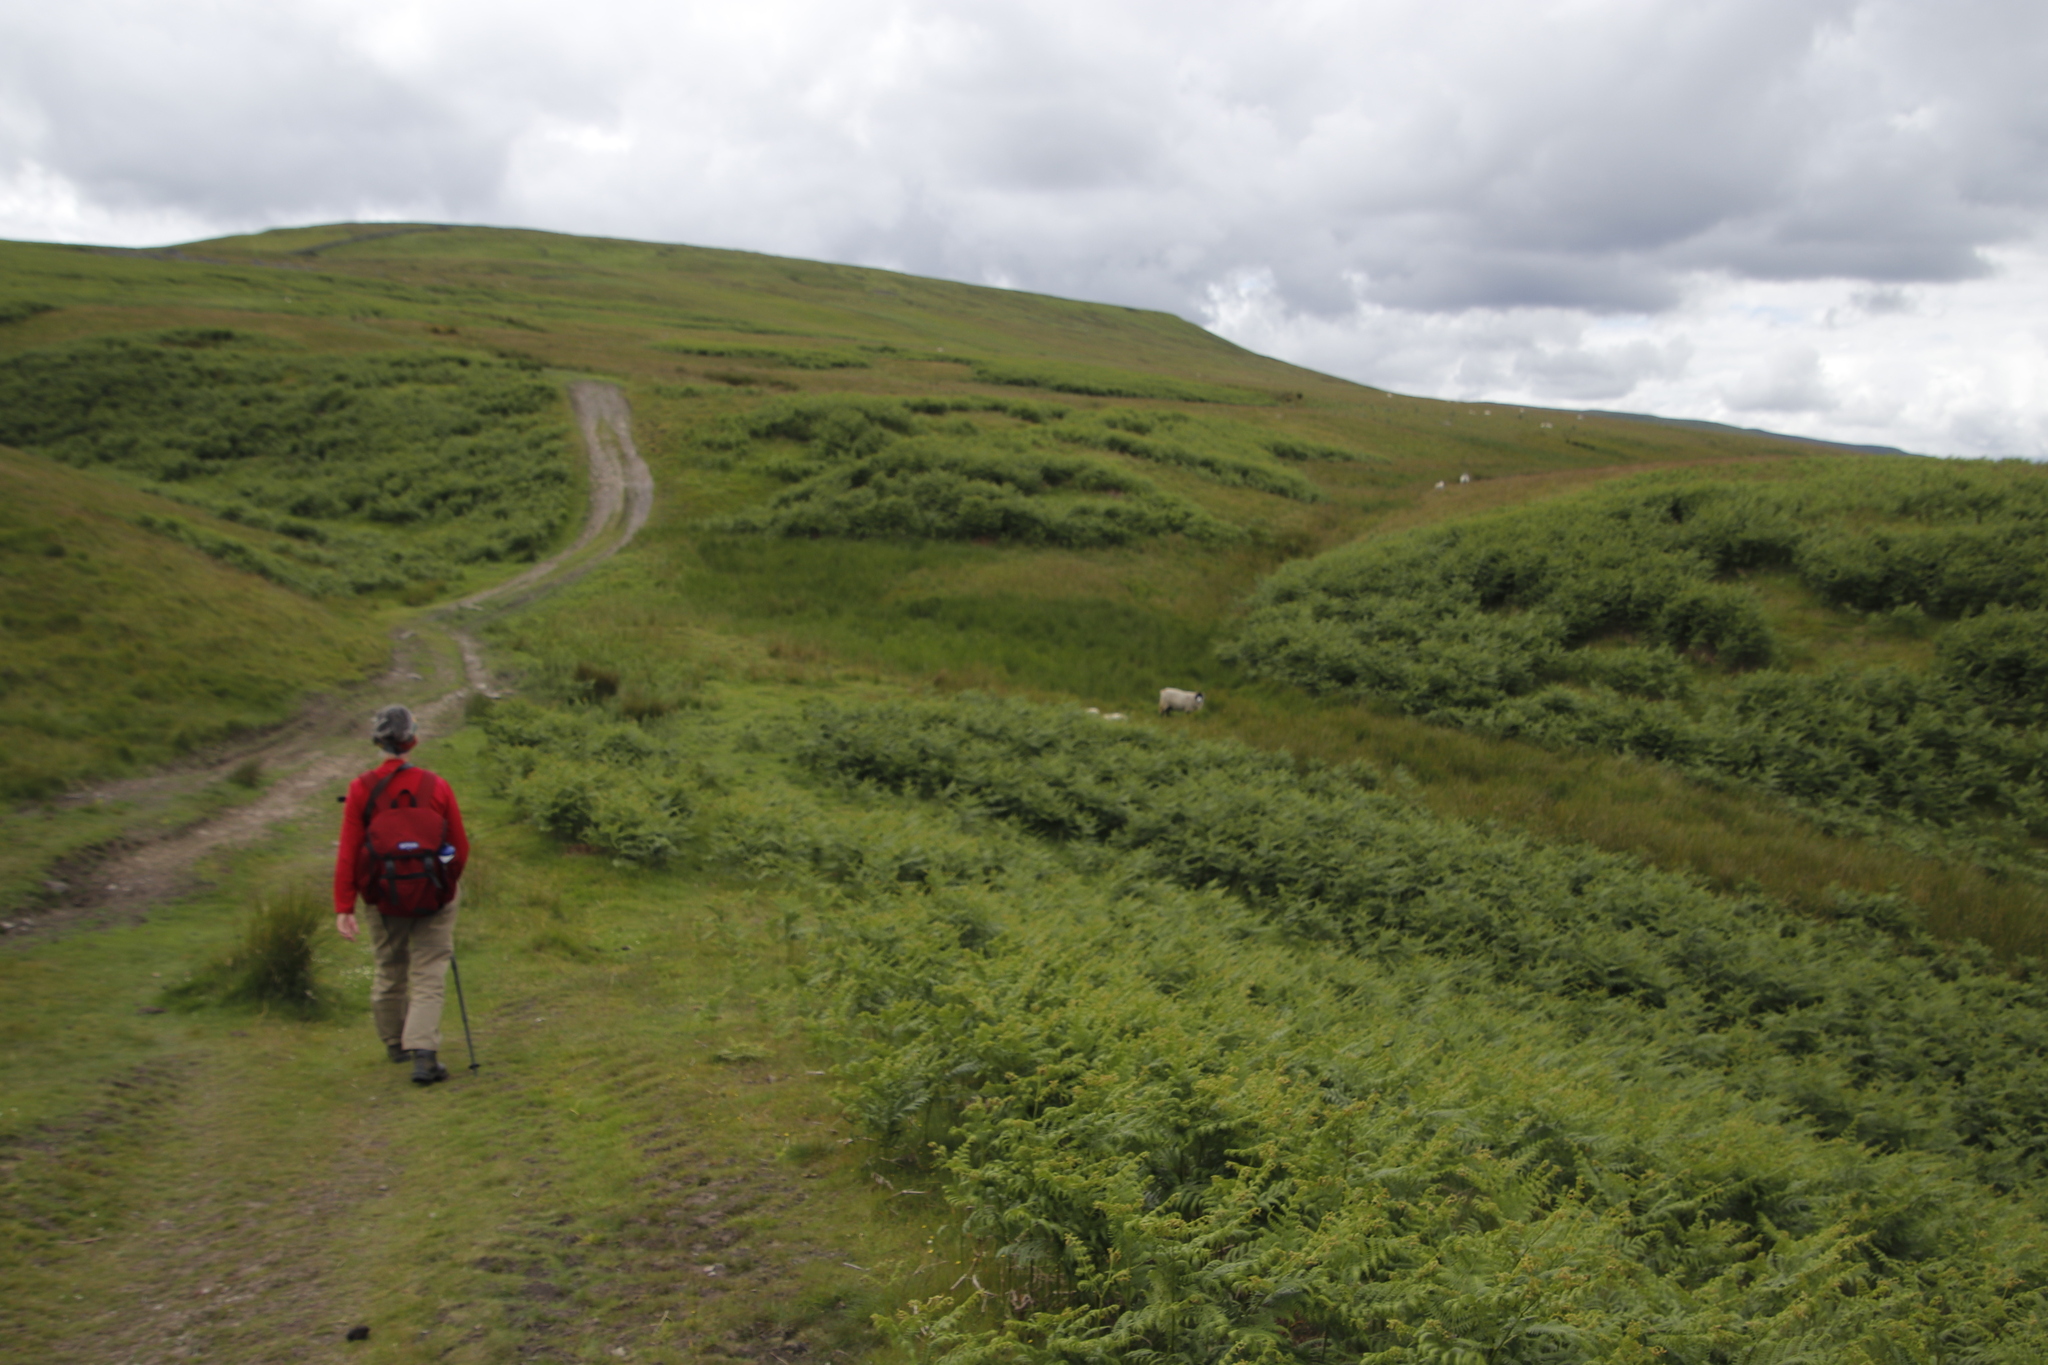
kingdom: Plantae
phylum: Tracheophyta
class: Polypodiopsida
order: Polypodiales
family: Dennstaedtiaceae
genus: Pteridium
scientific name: Pteridium aquilinum
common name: Bracken
